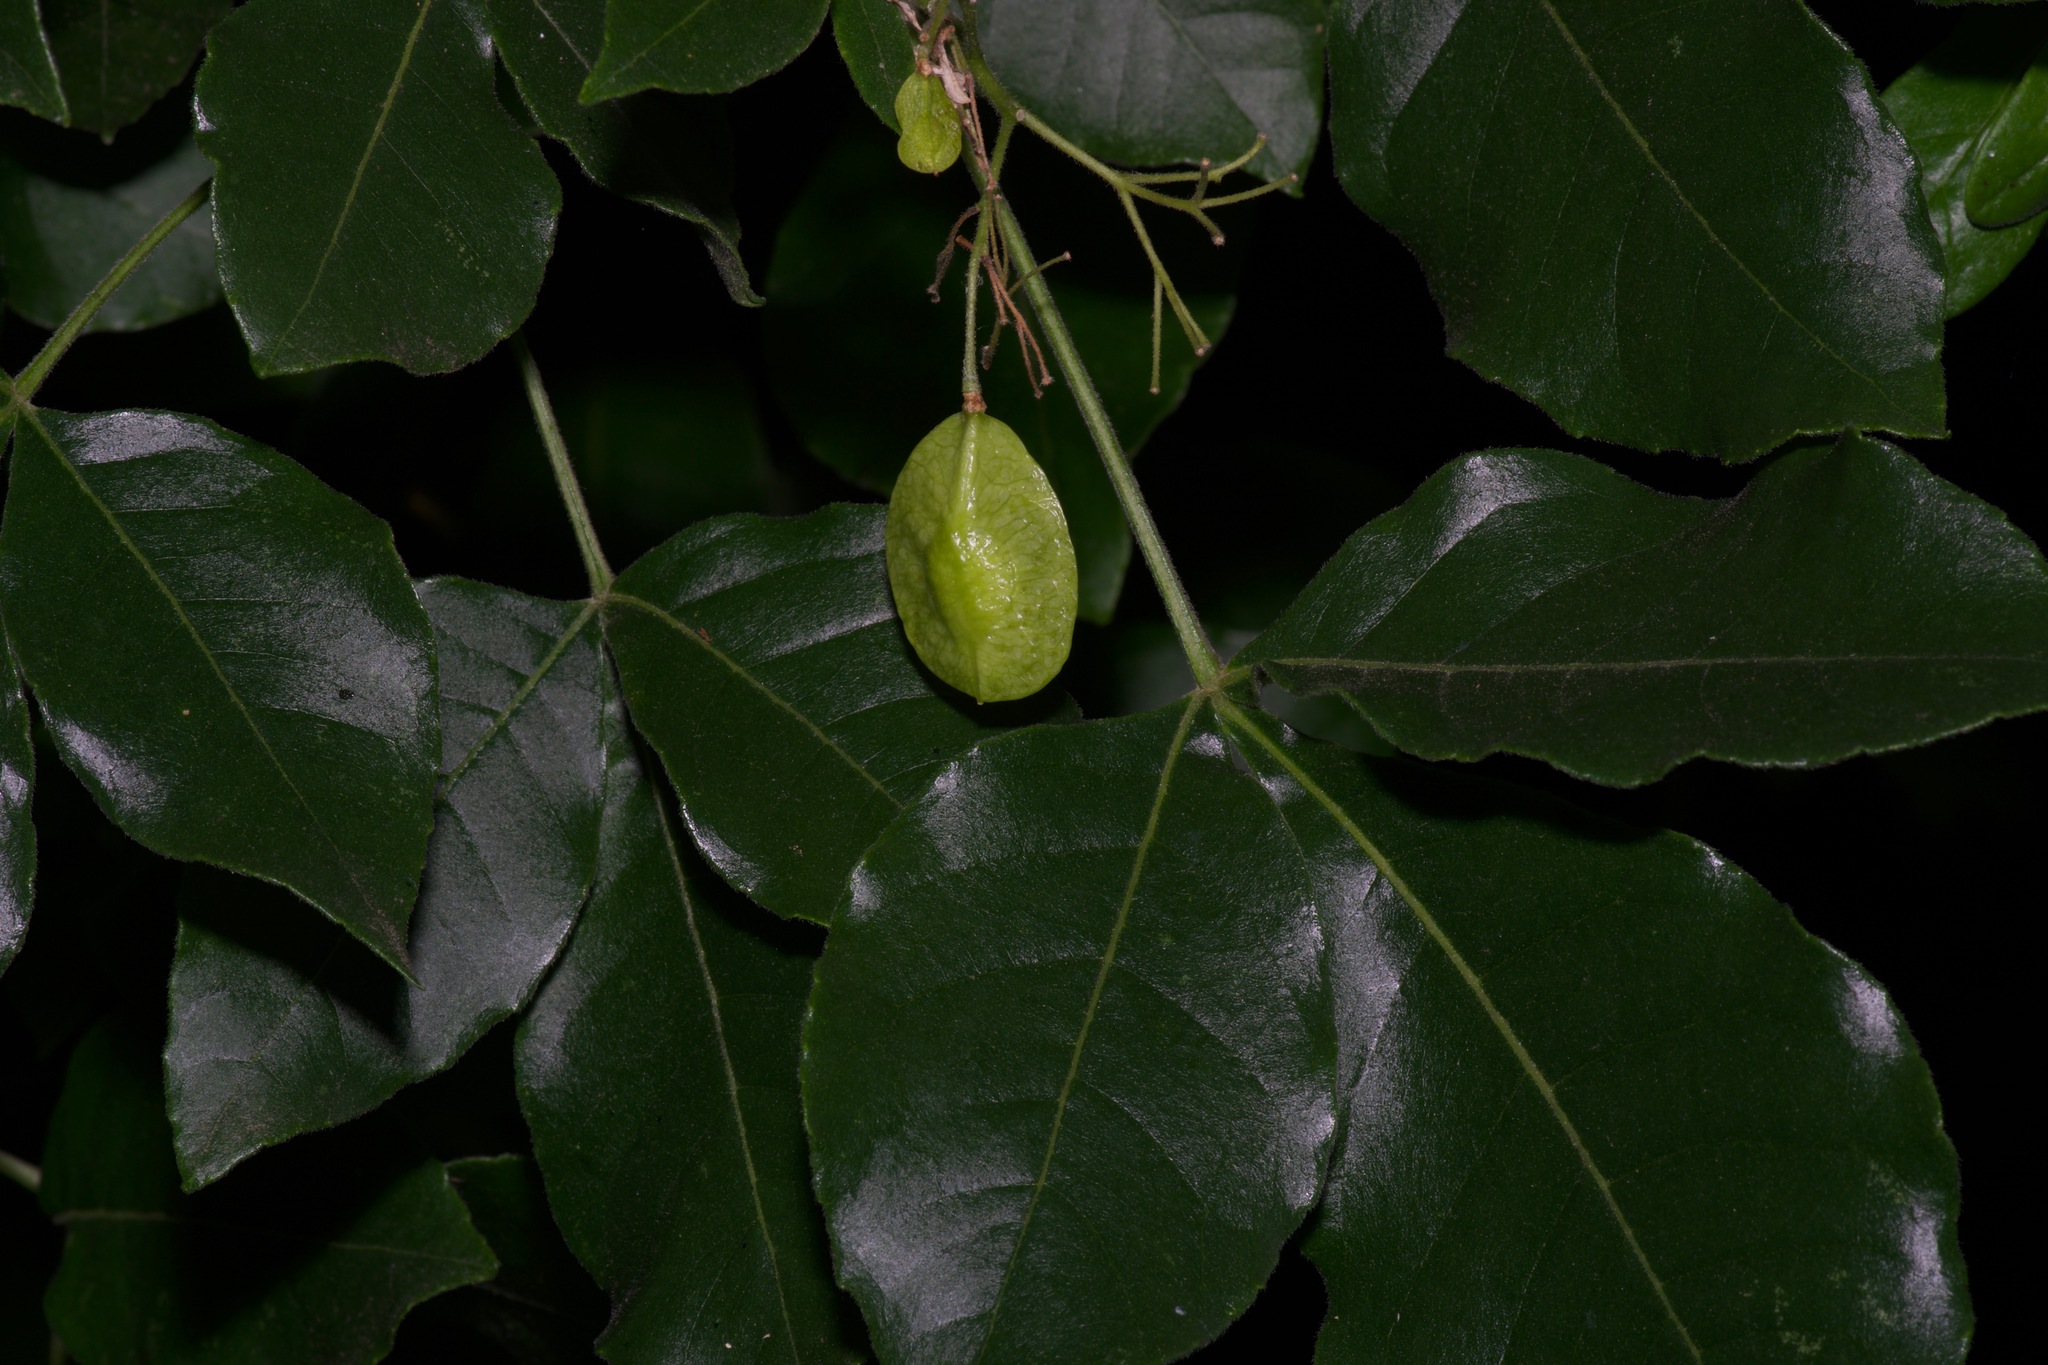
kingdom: Animalia
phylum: Arthropoda
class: Insecta
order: Lepidoptera
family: Papilionidae
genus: Papilio
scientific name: Papilio multicaudata
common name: Two-tailed tiger swallowtail
